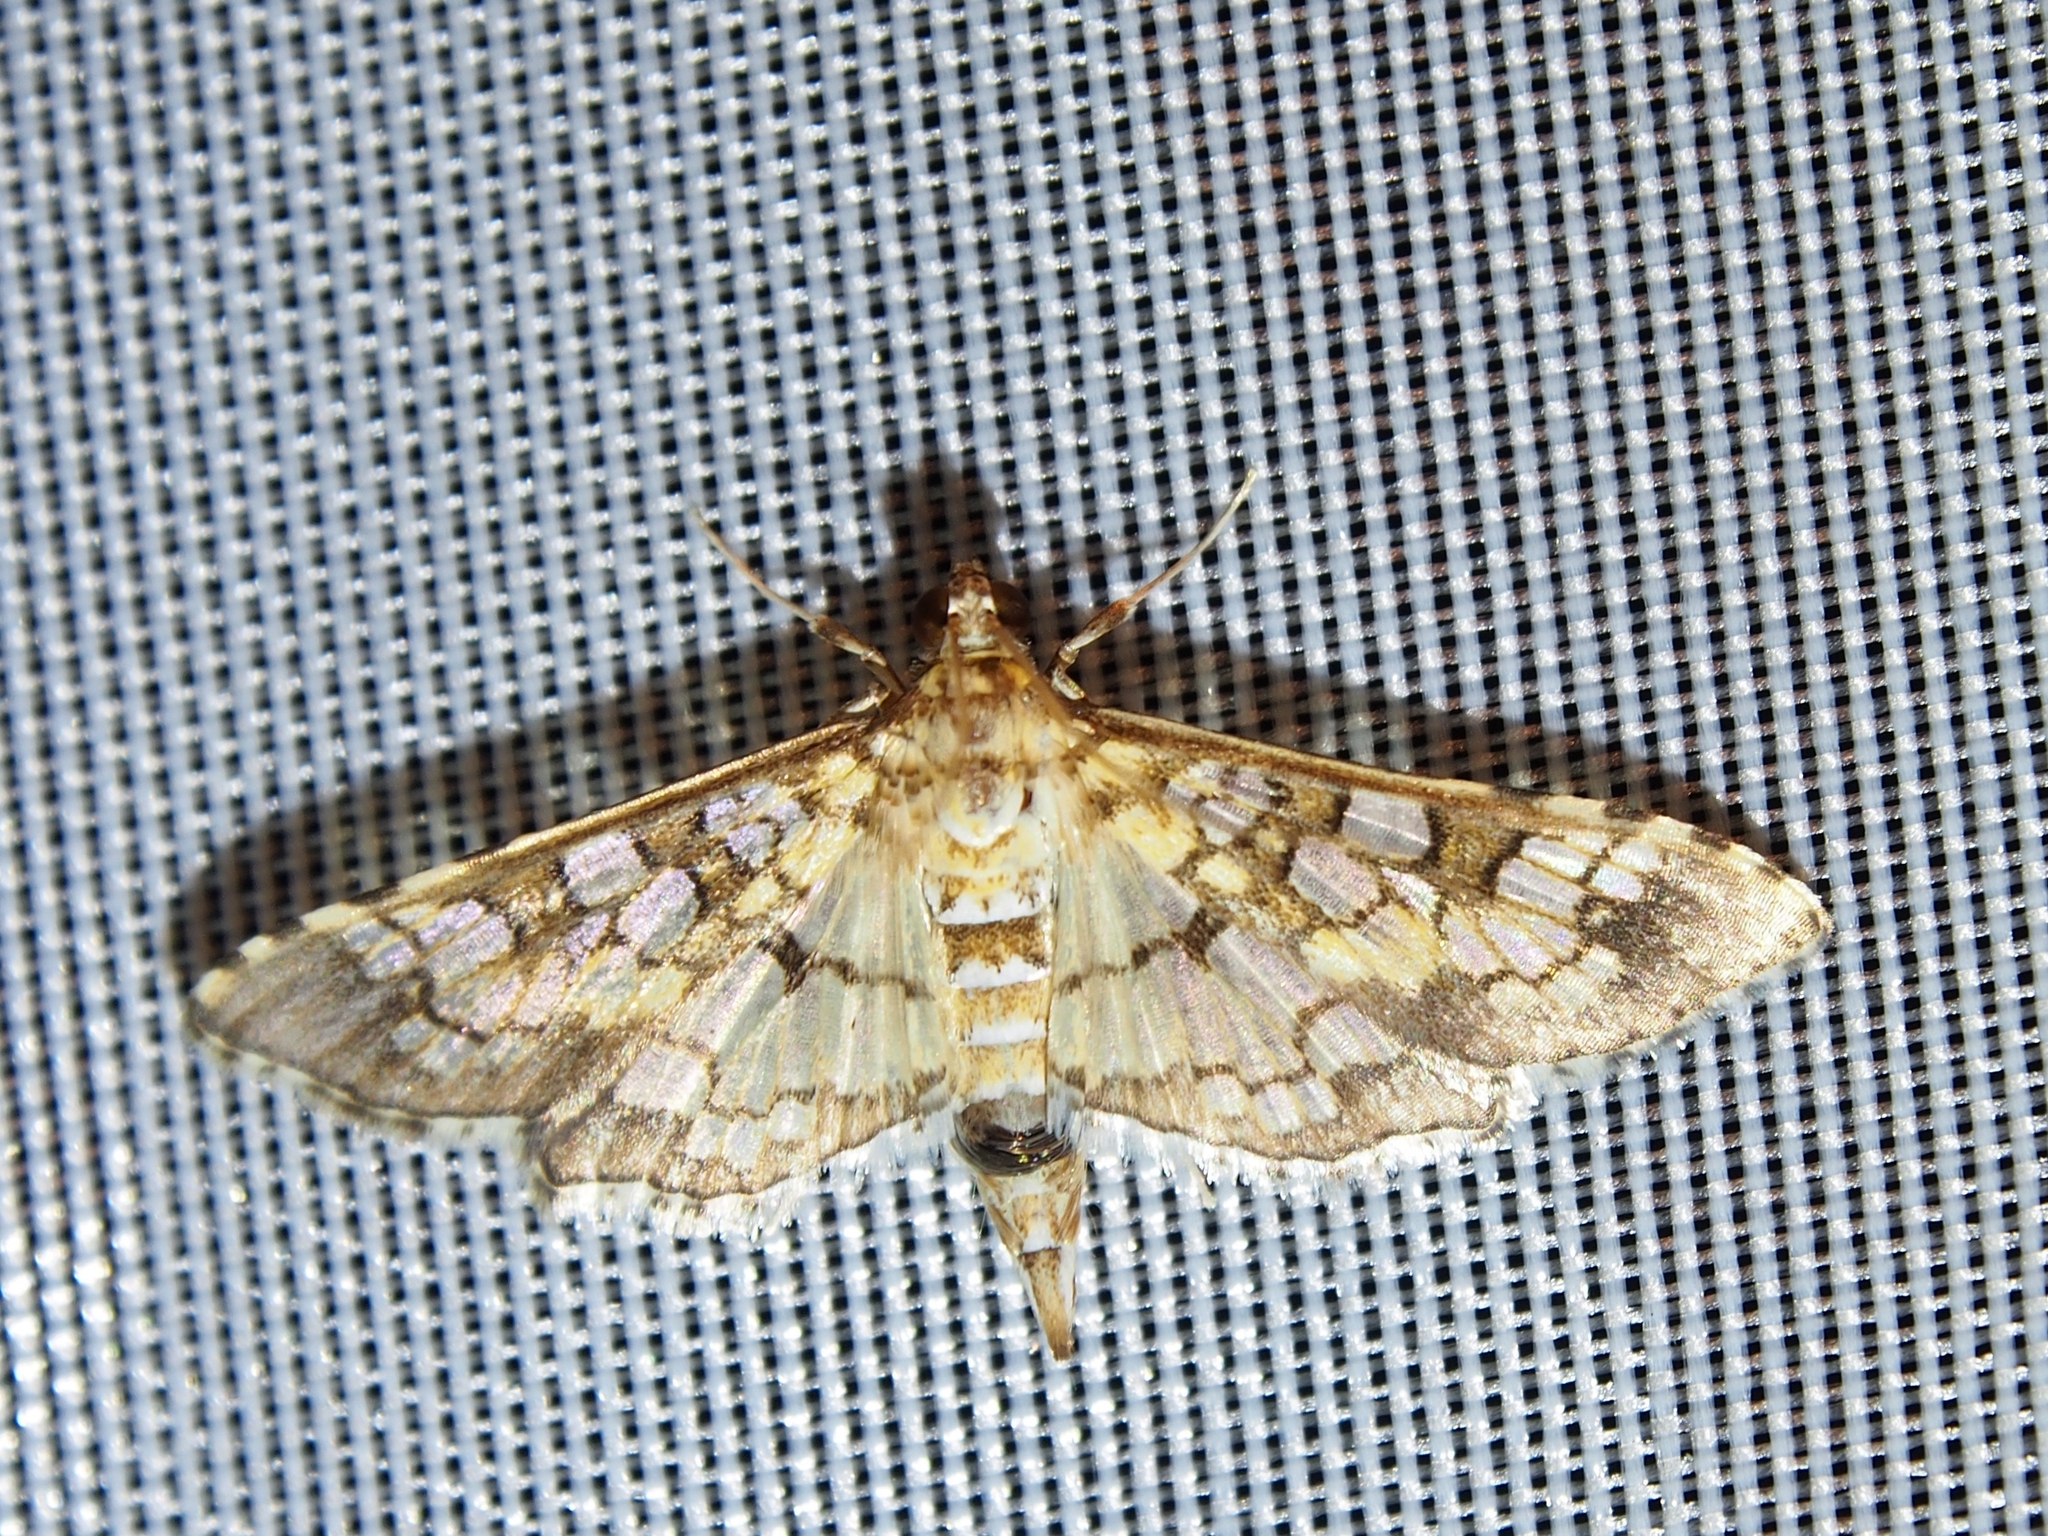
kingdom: Animalia
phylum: Arthropoda
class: Insecta
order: Lepidoptera
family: Crambidae
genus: Samea
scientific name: Samea ecclesialis
